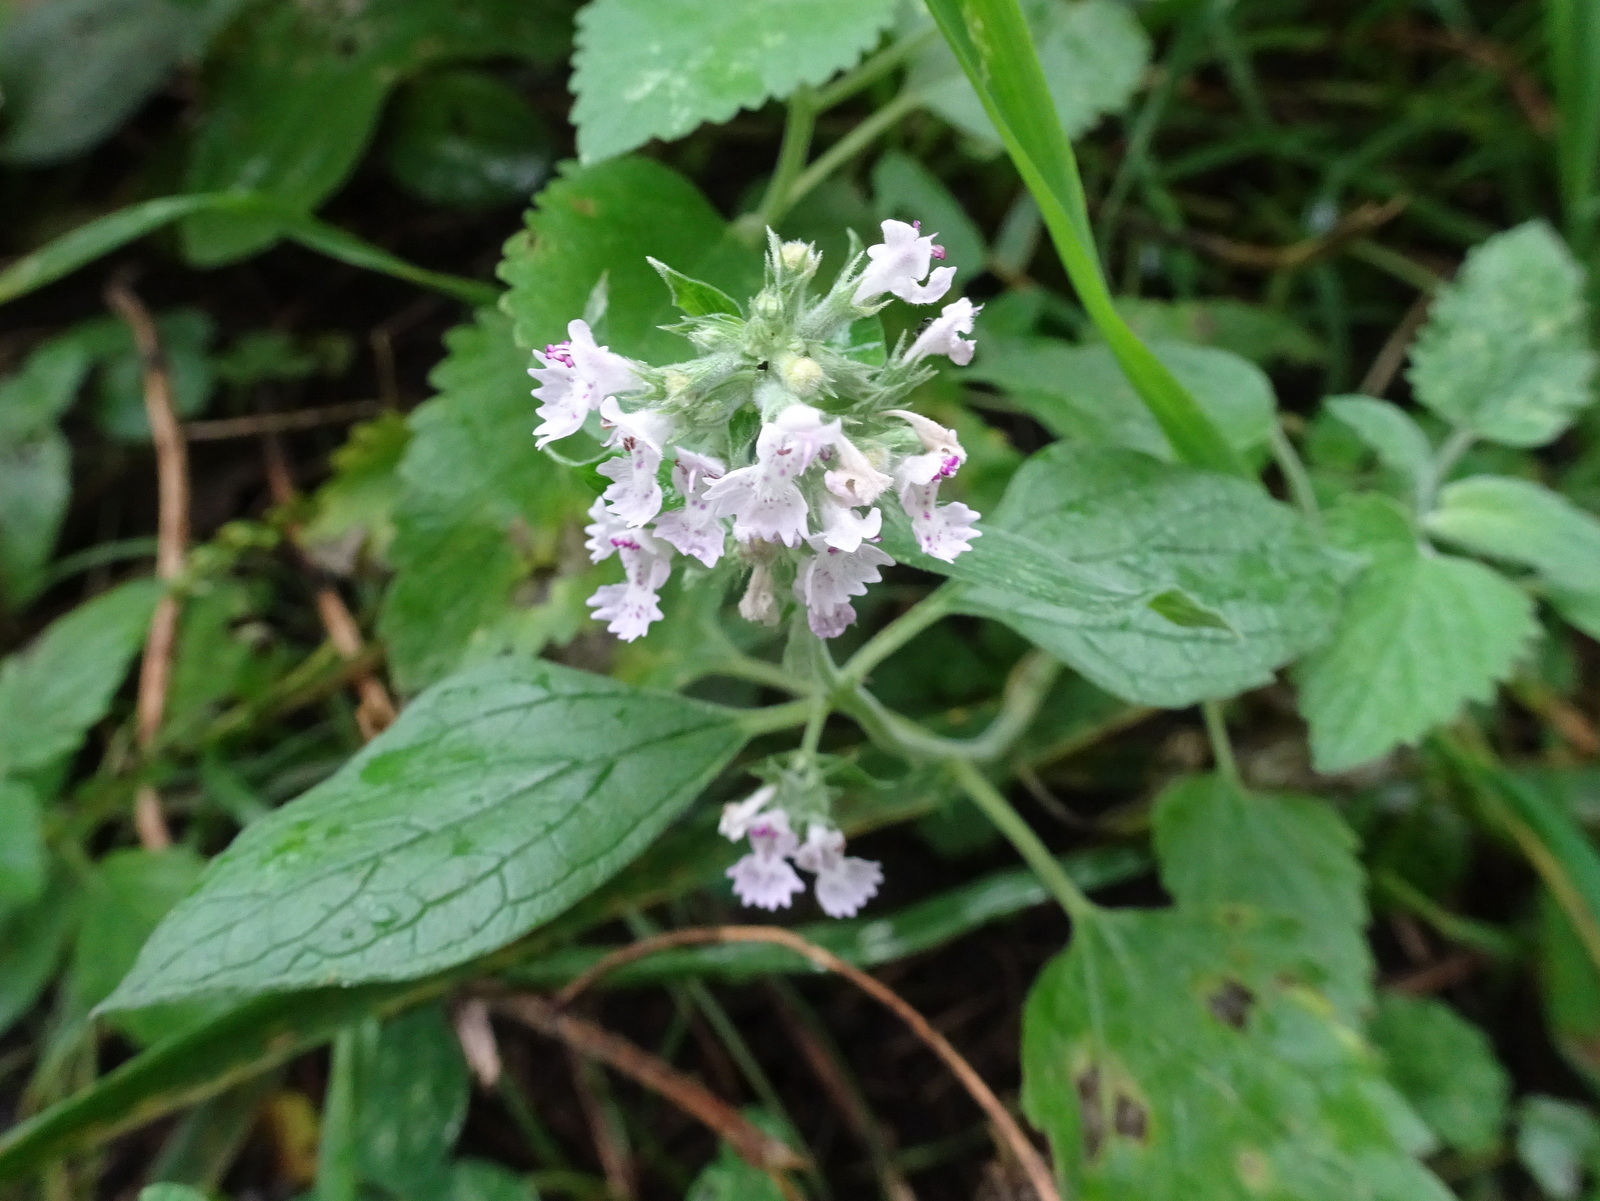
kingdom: Plantae
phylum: Tracheophyta
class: Magnoliopsida
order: Lamiales
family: Lamiaceae
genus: Nepeta
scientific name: Nepeta cataria
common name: Catnip
